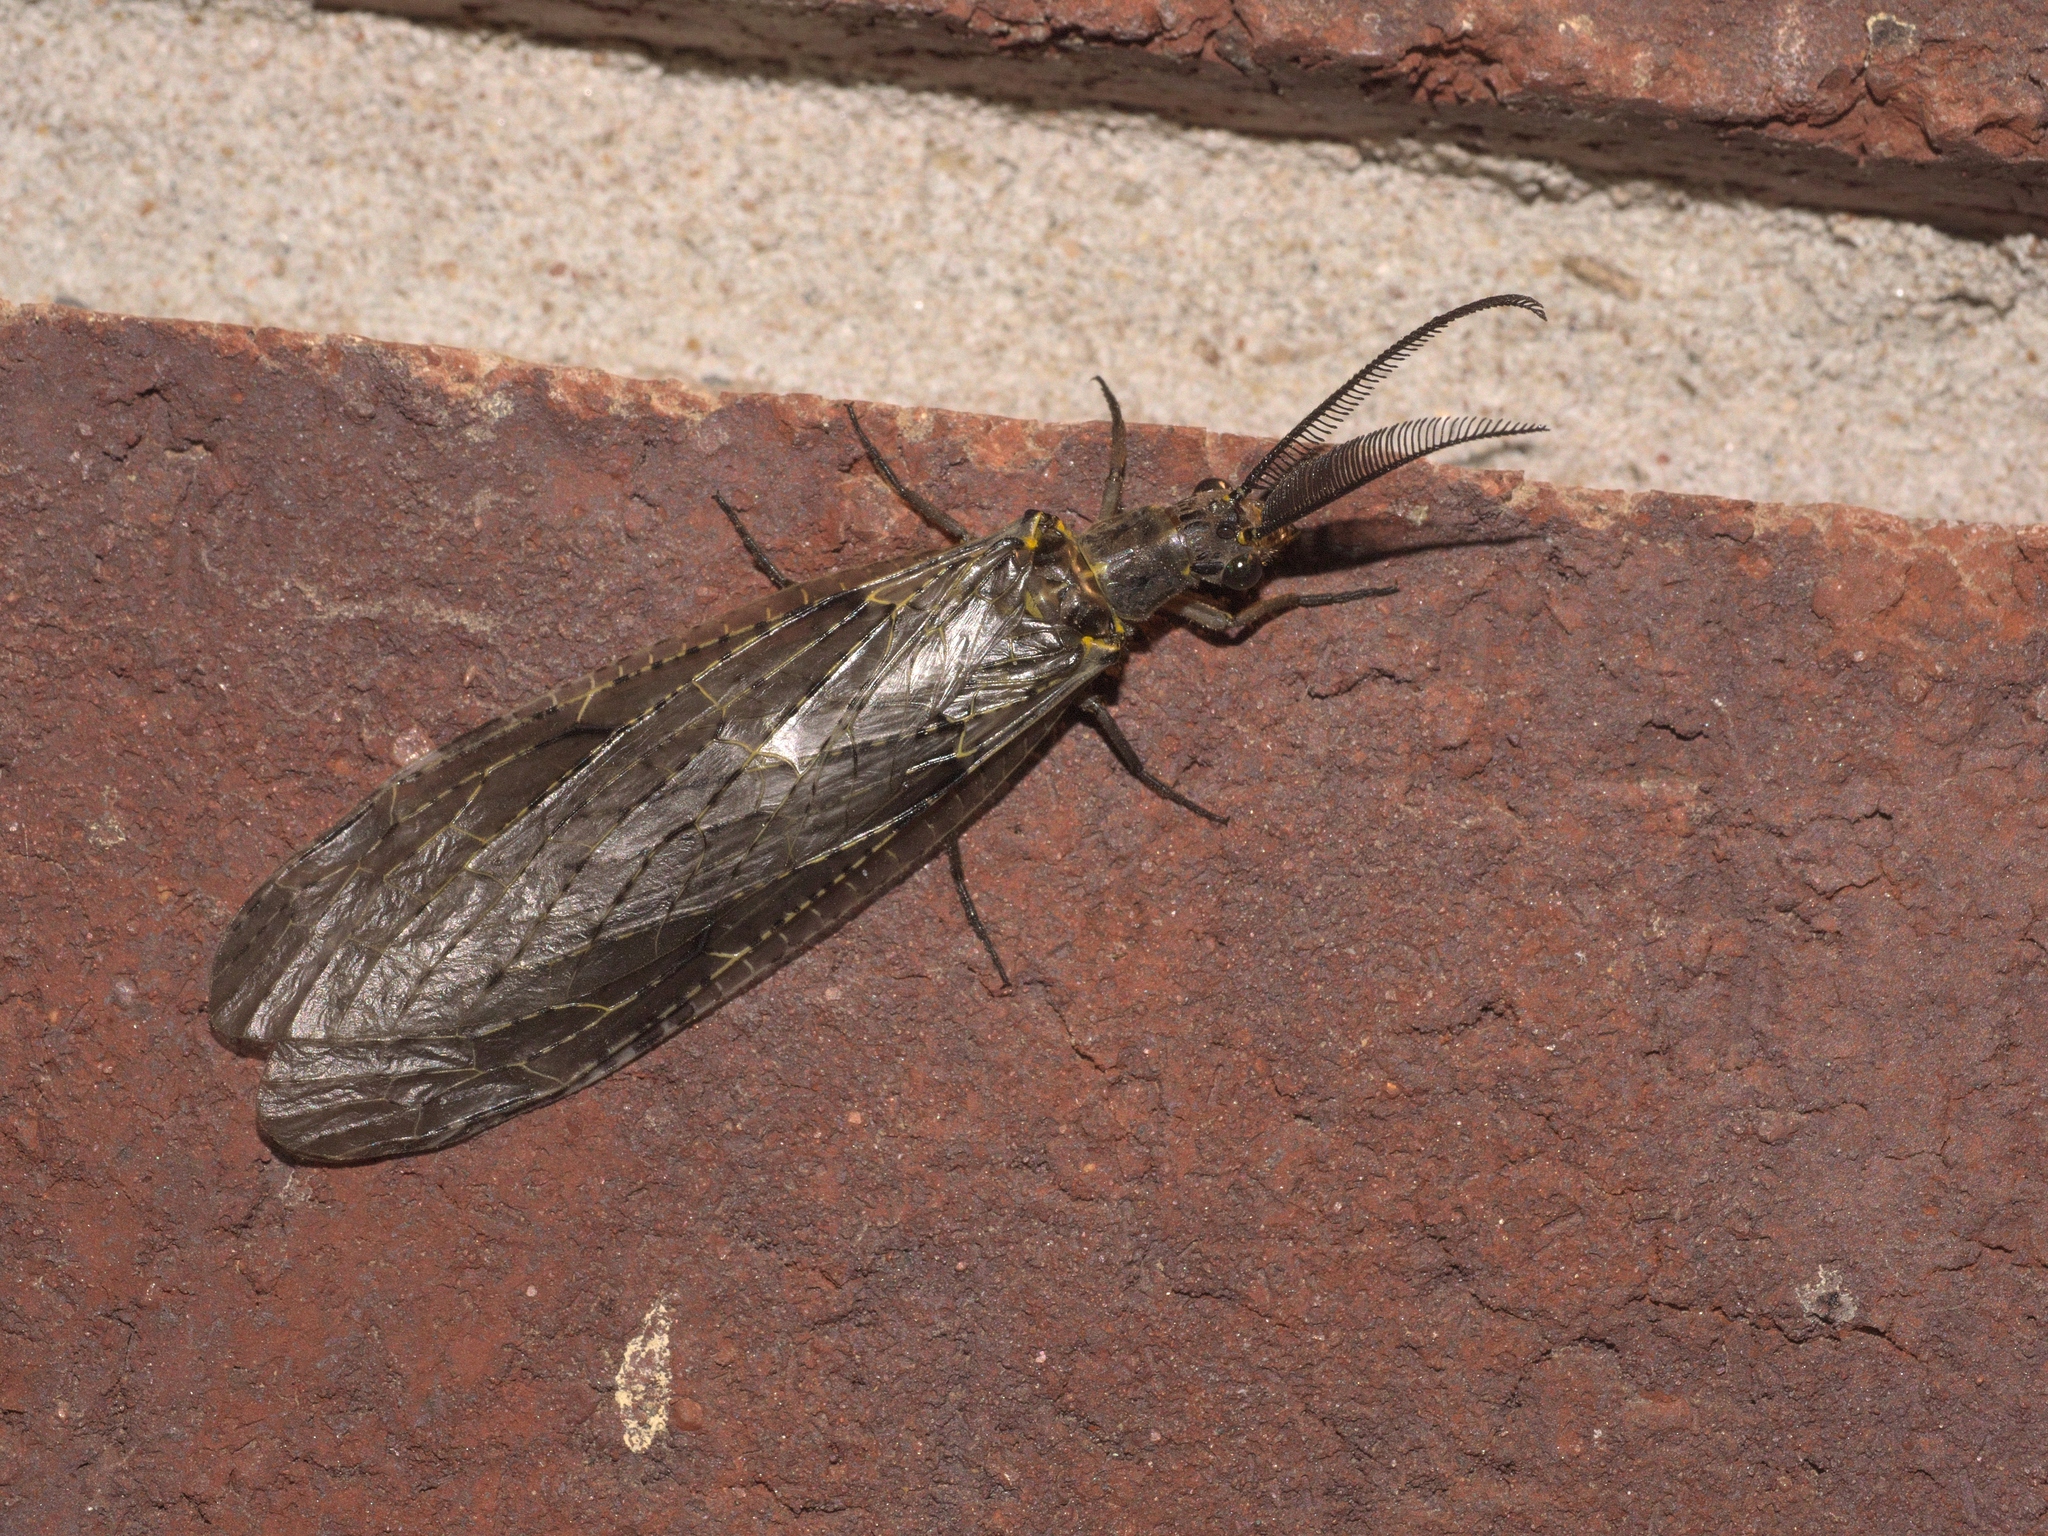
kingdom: Animalia
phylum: Arthropoda
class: Insecta
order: Megaloptera
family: Corydalidae
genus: Chauliodes
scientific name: Chauliodes rastricornis
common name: Spring fishfly
